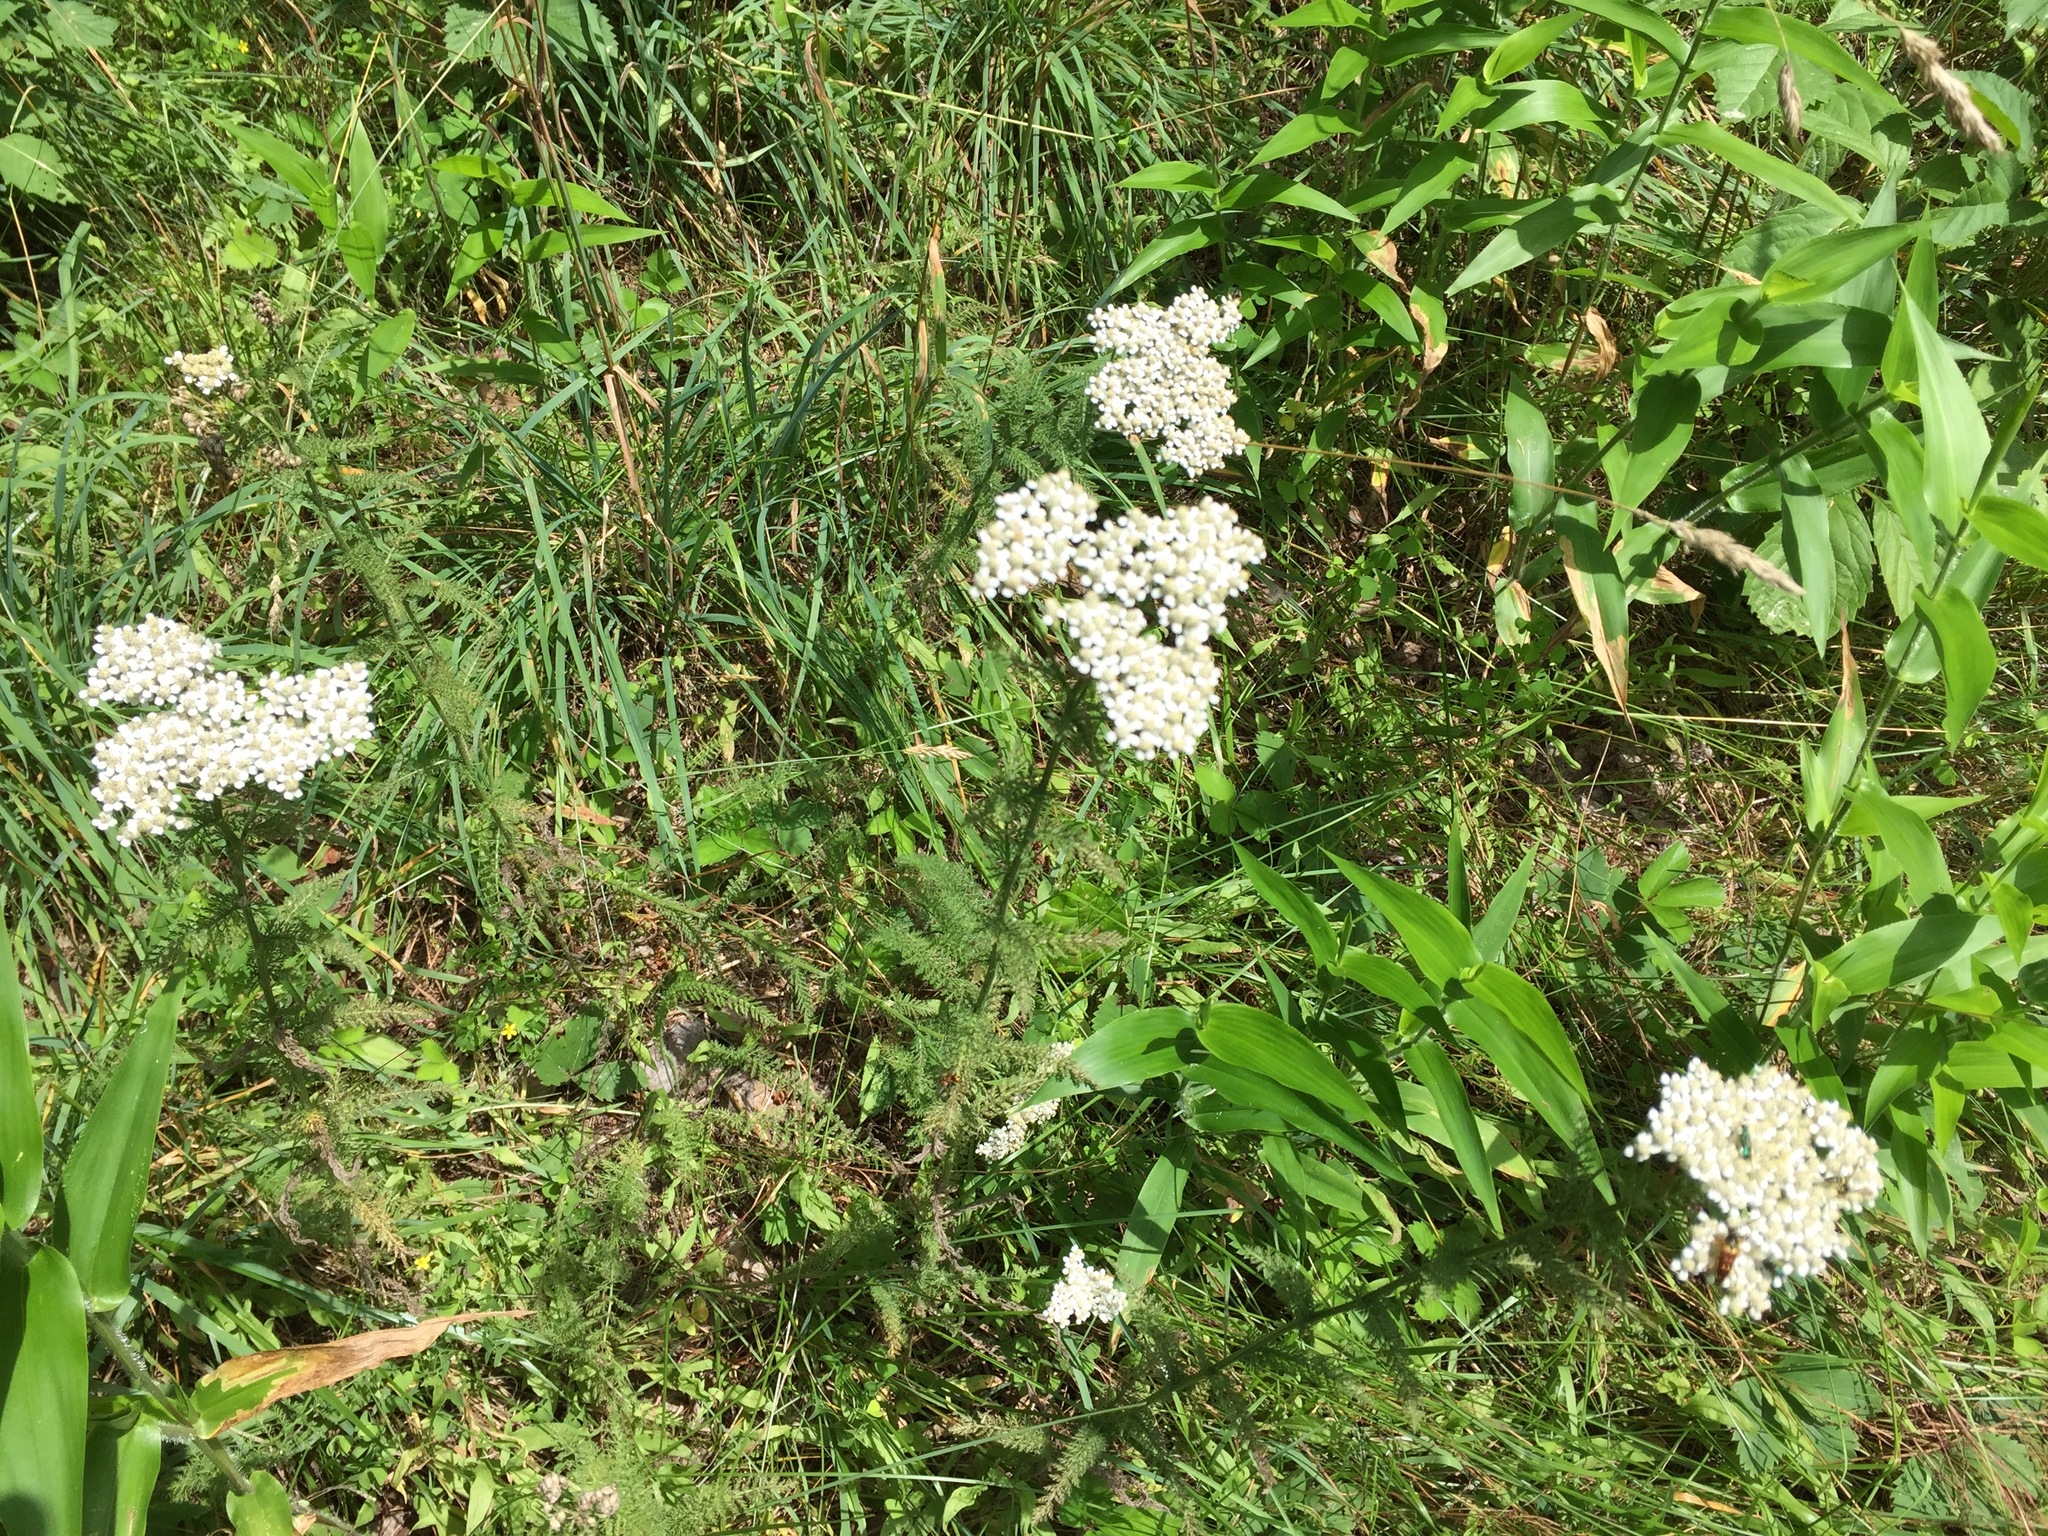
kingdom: Plantae
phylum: Tracheophyta
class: Magnoliopsida
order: Asterales
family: Asteraceae
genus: Achillea
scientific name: Achillea millefolium
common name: Yarrow
